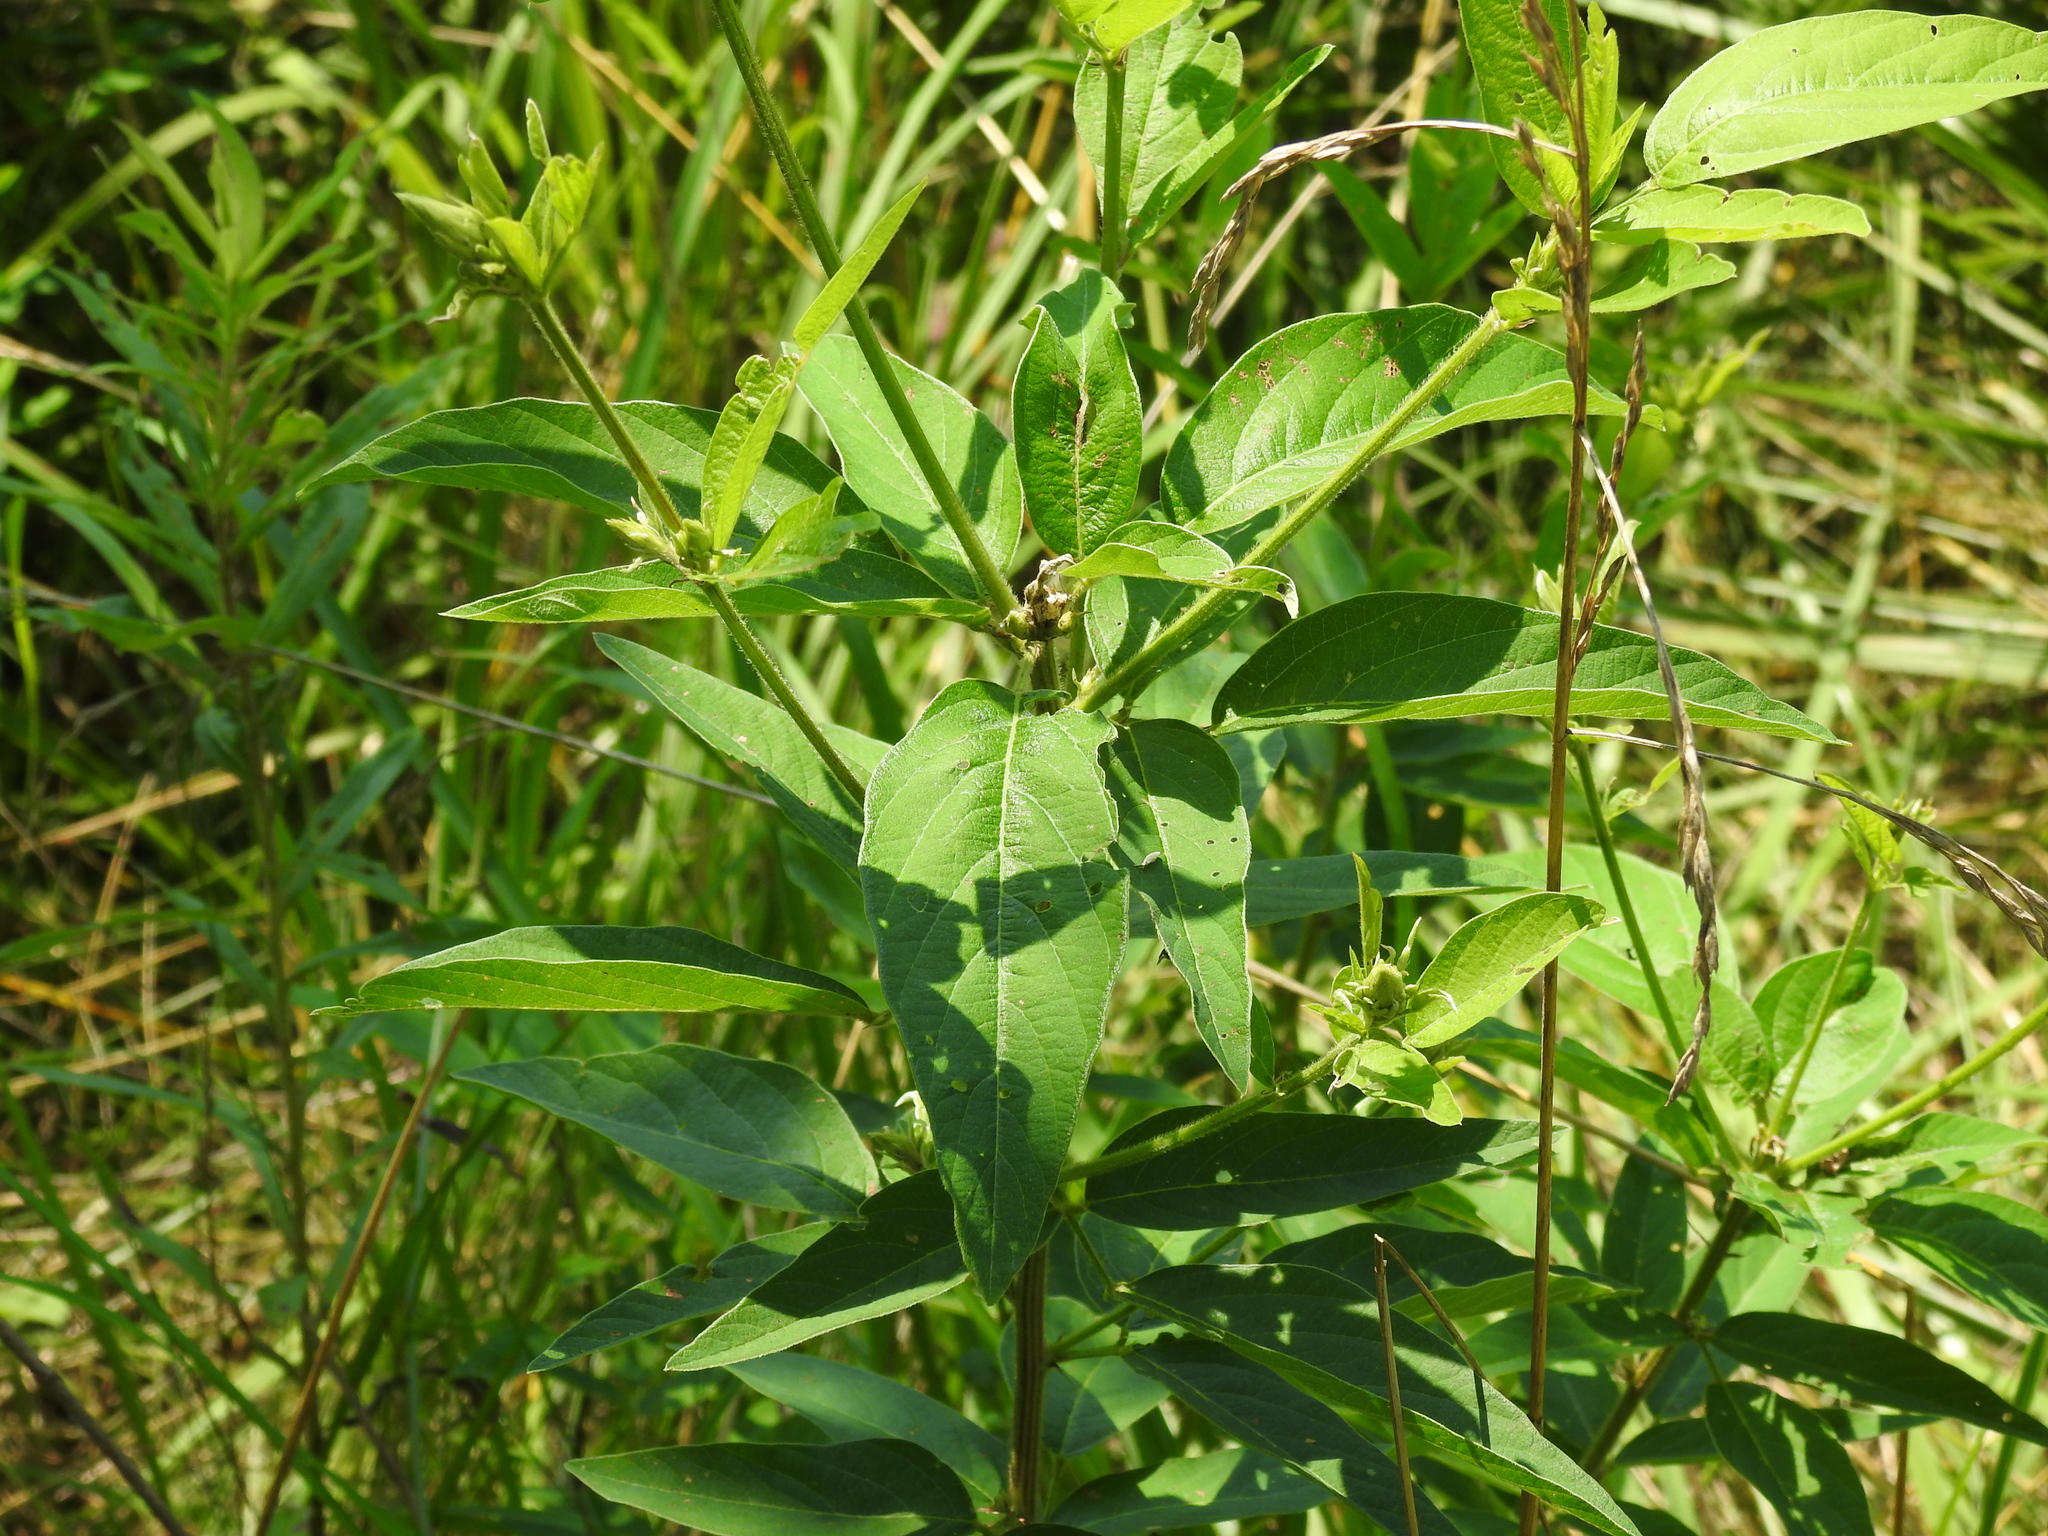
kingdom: Plantae
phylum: Tracheophyta
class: Magnoliopsida
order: Fabales
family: Fabaceae
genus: Desmodium
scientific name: Desmodium canadense
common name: Canada tick-trefoil
